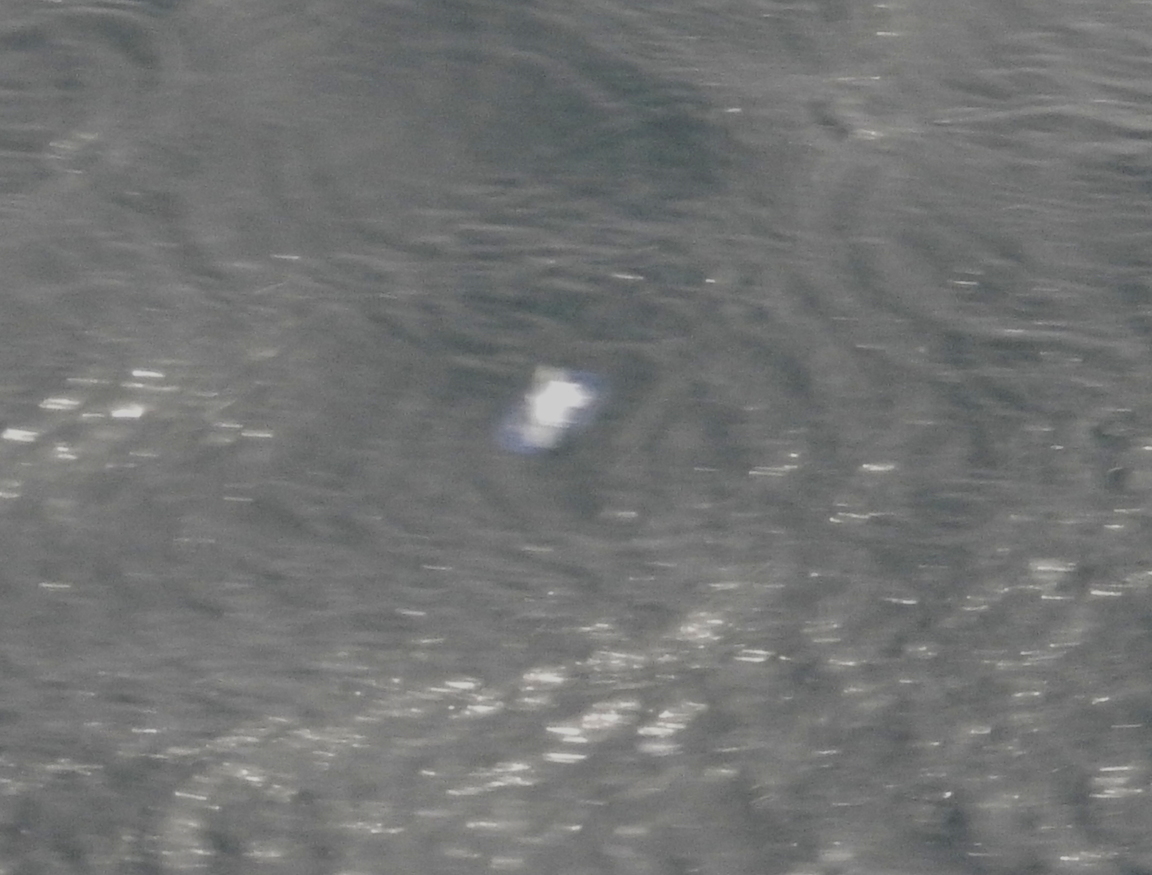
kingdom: Animalia
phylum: Cnidaria
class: Hydrozoa
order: Anthoathecata
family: Porpitidae
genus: Velella
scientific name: Velella velella
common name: By-the-wind-sailor
